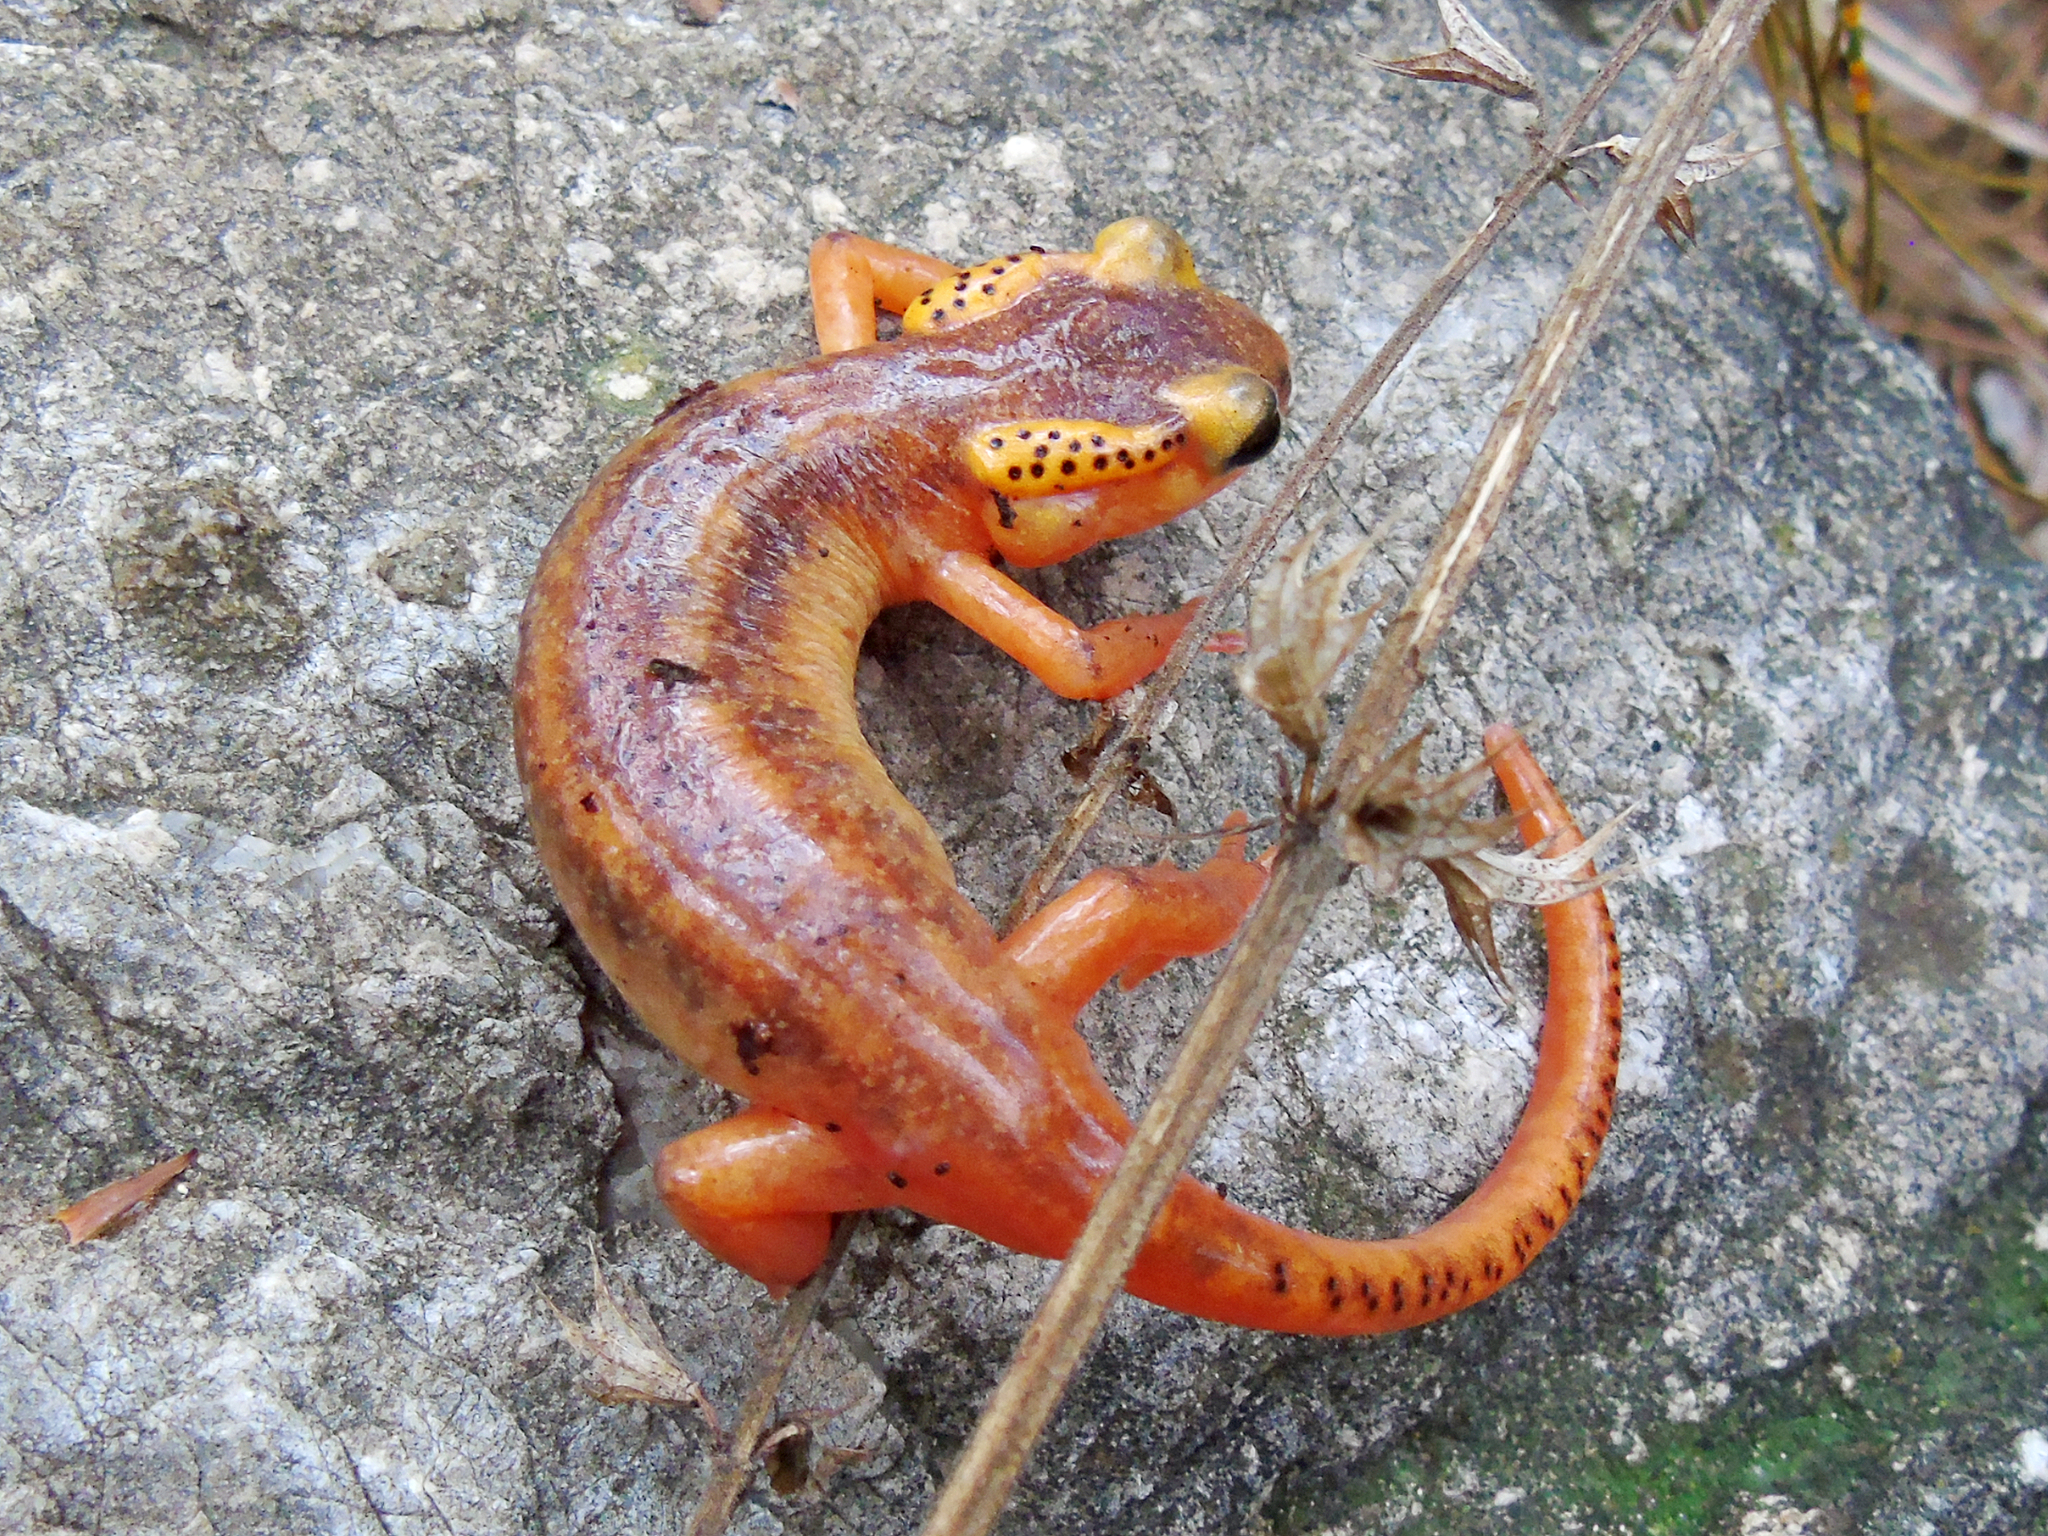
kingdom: Animalia
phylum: Chordata
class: Amphibia
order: Caudata
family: Salamandridae
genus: Lyciasalamandra
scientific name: Lyciasalamandra antalyana
